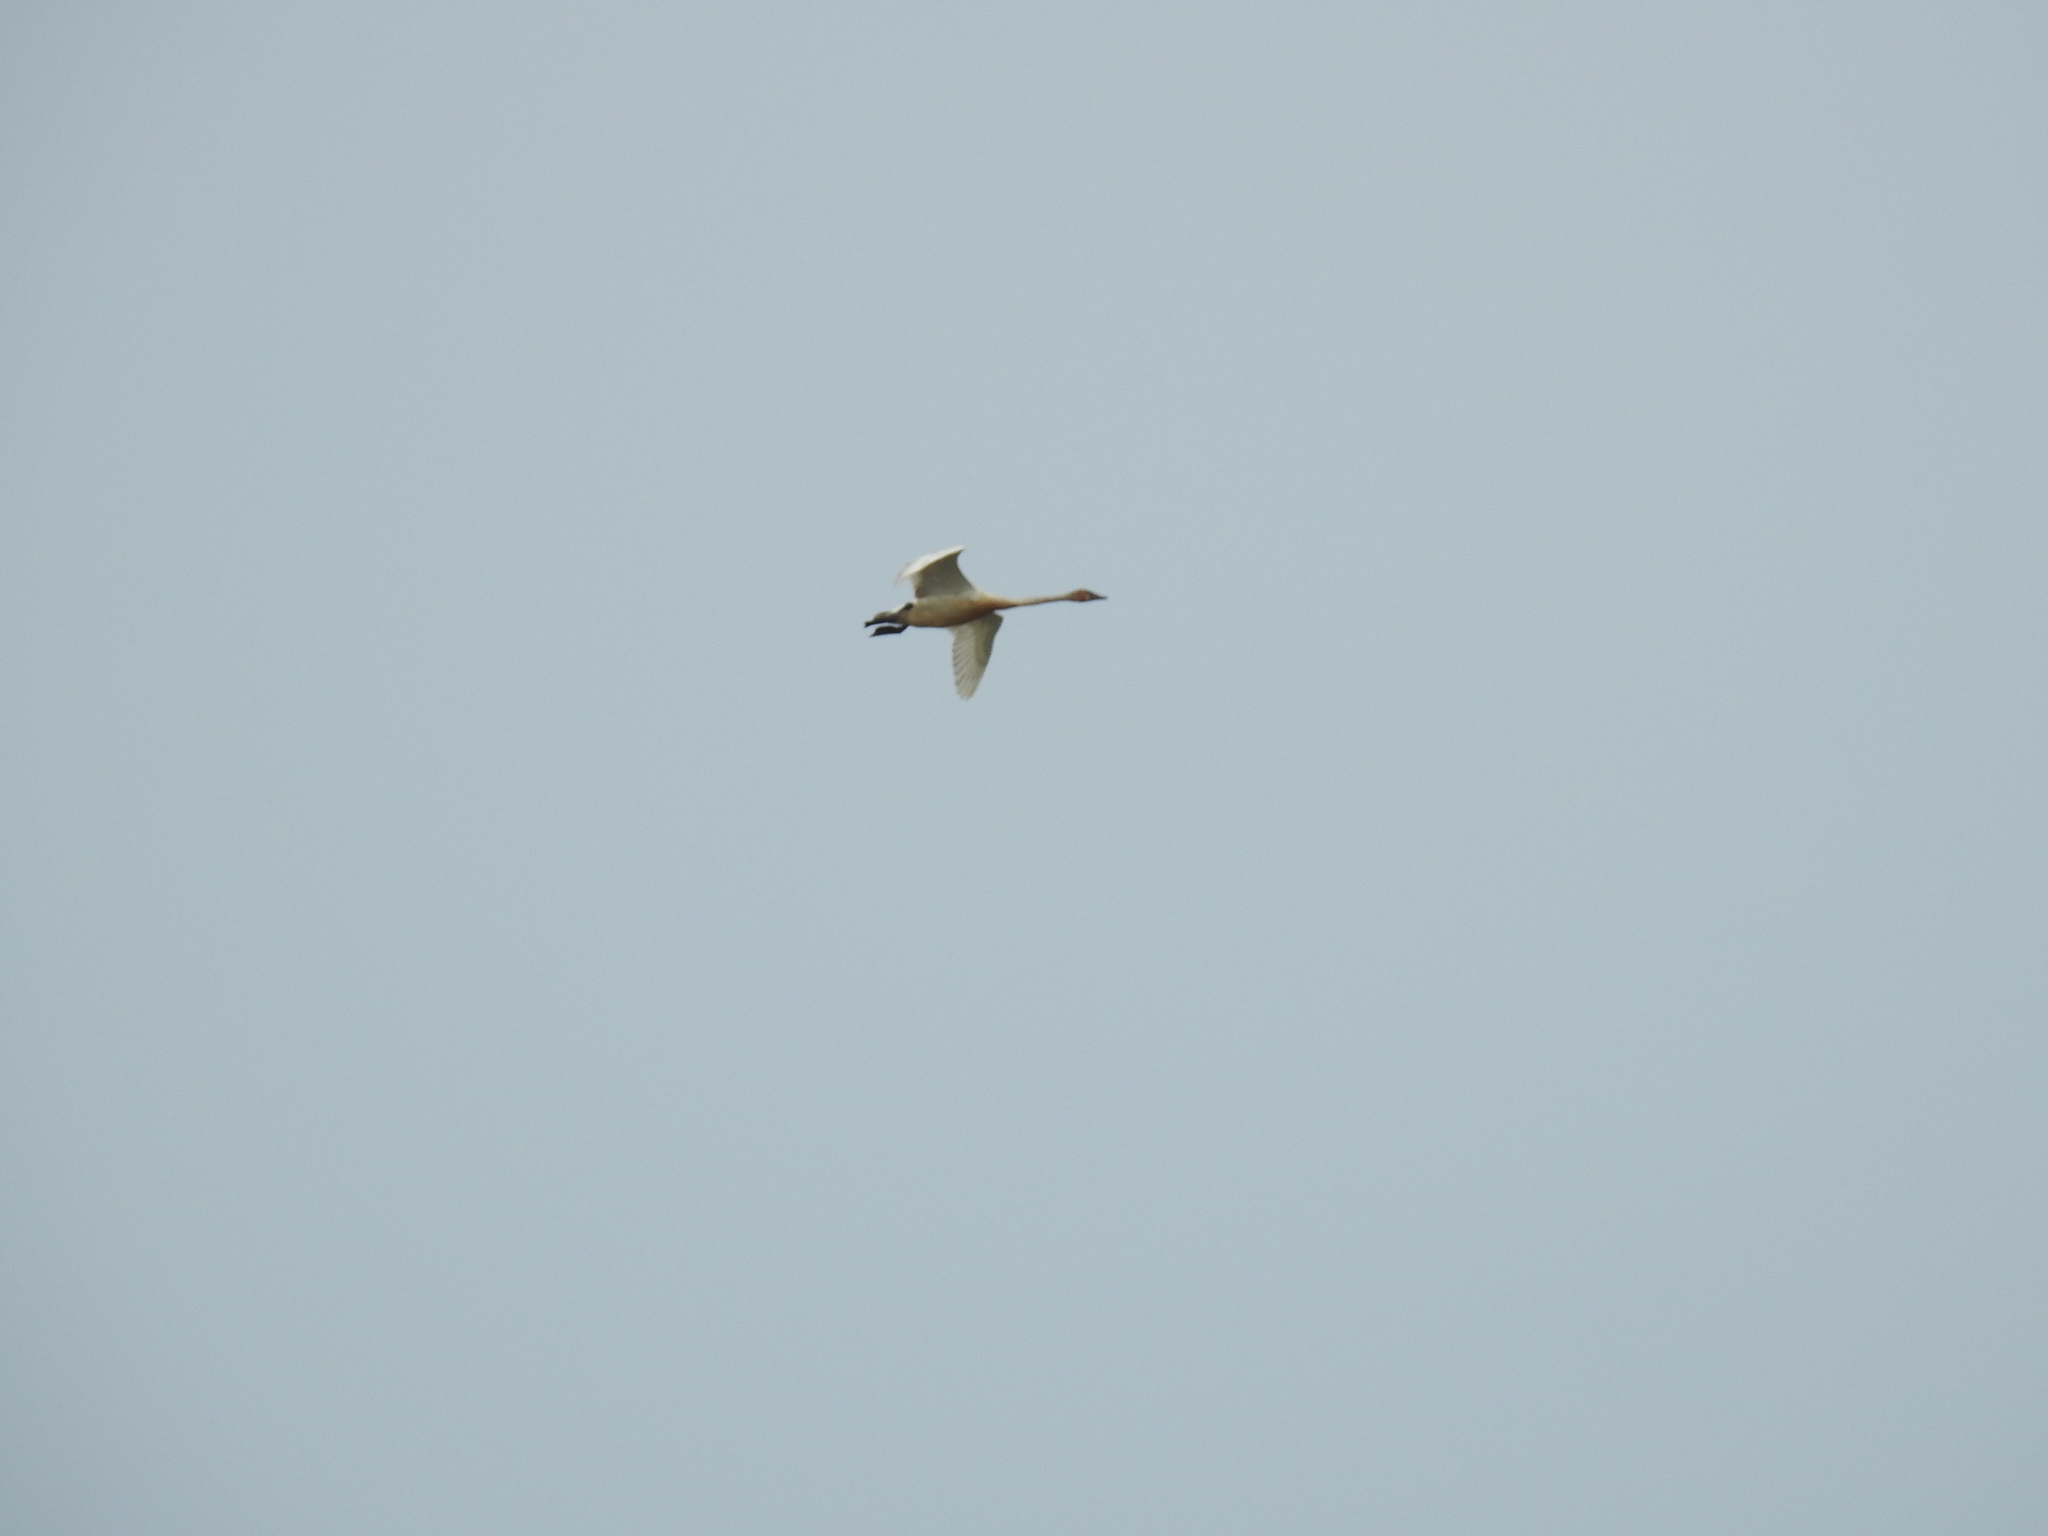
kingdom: Animalia
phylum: Chordata
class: Aves
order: Anseriformes
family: Anatidae
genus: Cygnus
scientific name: Cygnus buccinator
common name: Trumpeter swan
